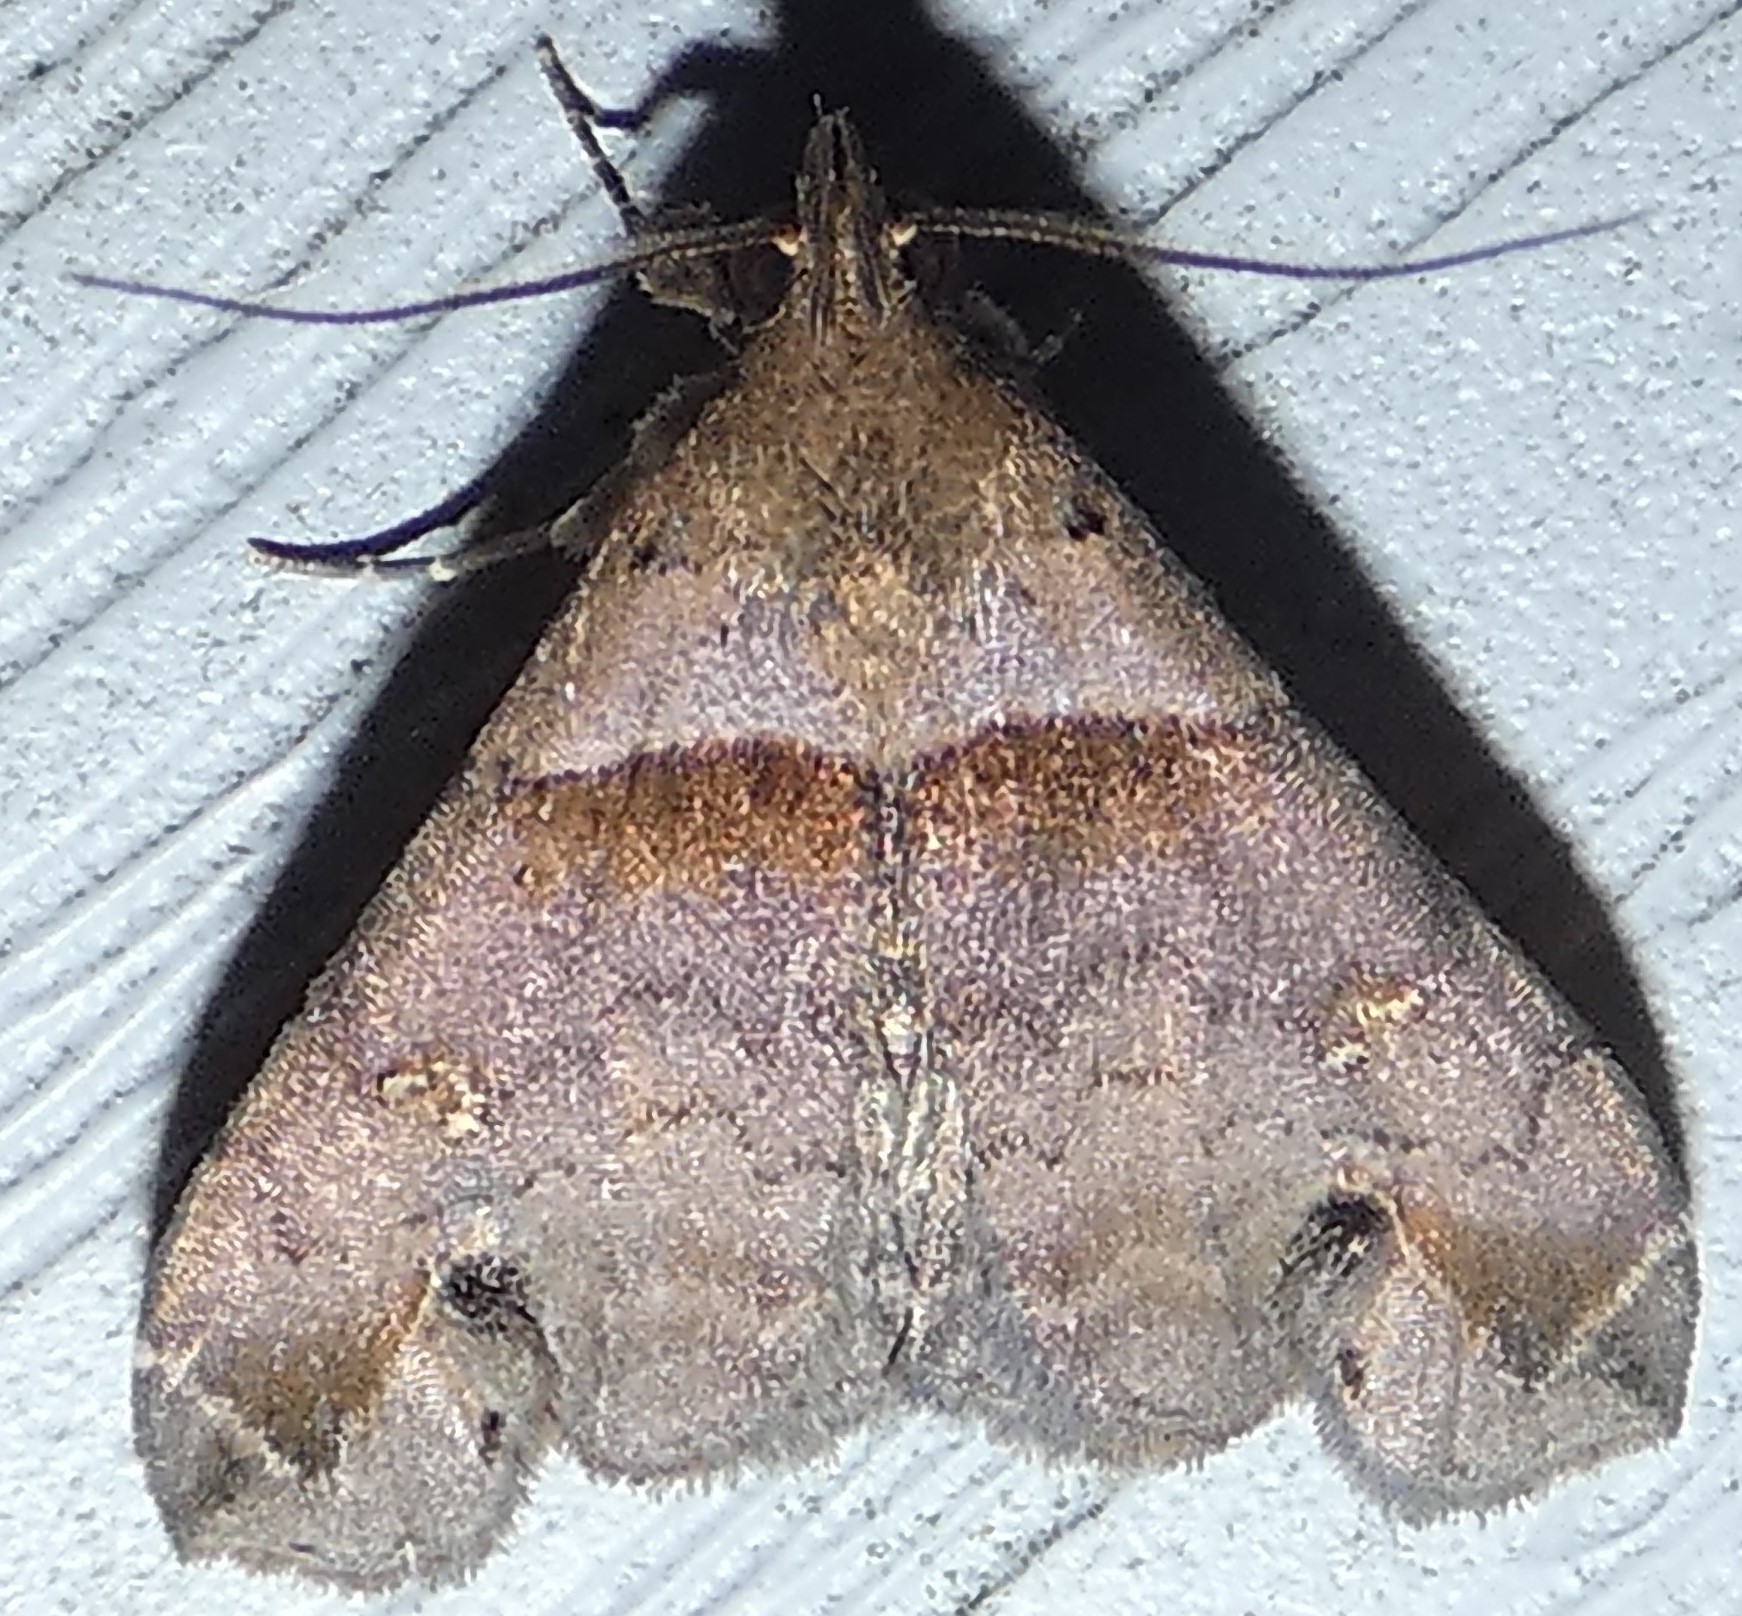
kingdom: Animalia
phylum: Arthropoda
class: Insecta
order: Lepidoptera
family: Erebidae
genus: Lascoria
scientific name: Lascoria ambigualis
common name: Ambiguous moth
